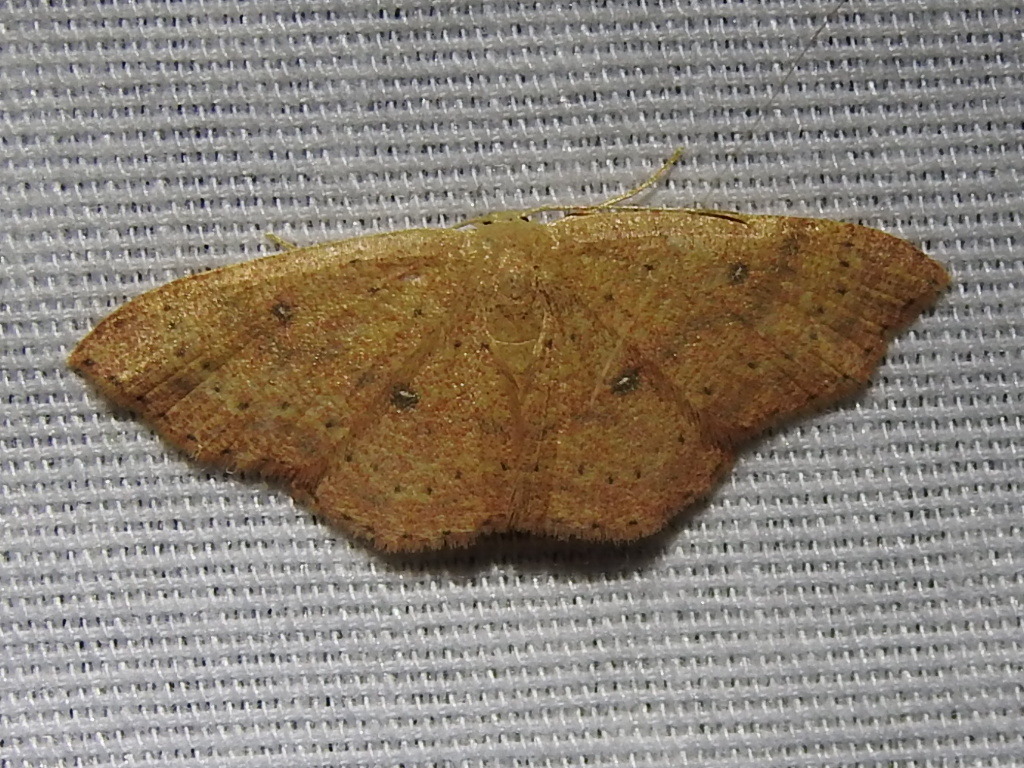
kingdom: Animalia
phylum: Arthropoda
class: Insecta
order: Lepidoptera
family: Geometridae
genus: Cyclophora
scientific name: Cyclophora packardi
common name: Packard's wave
